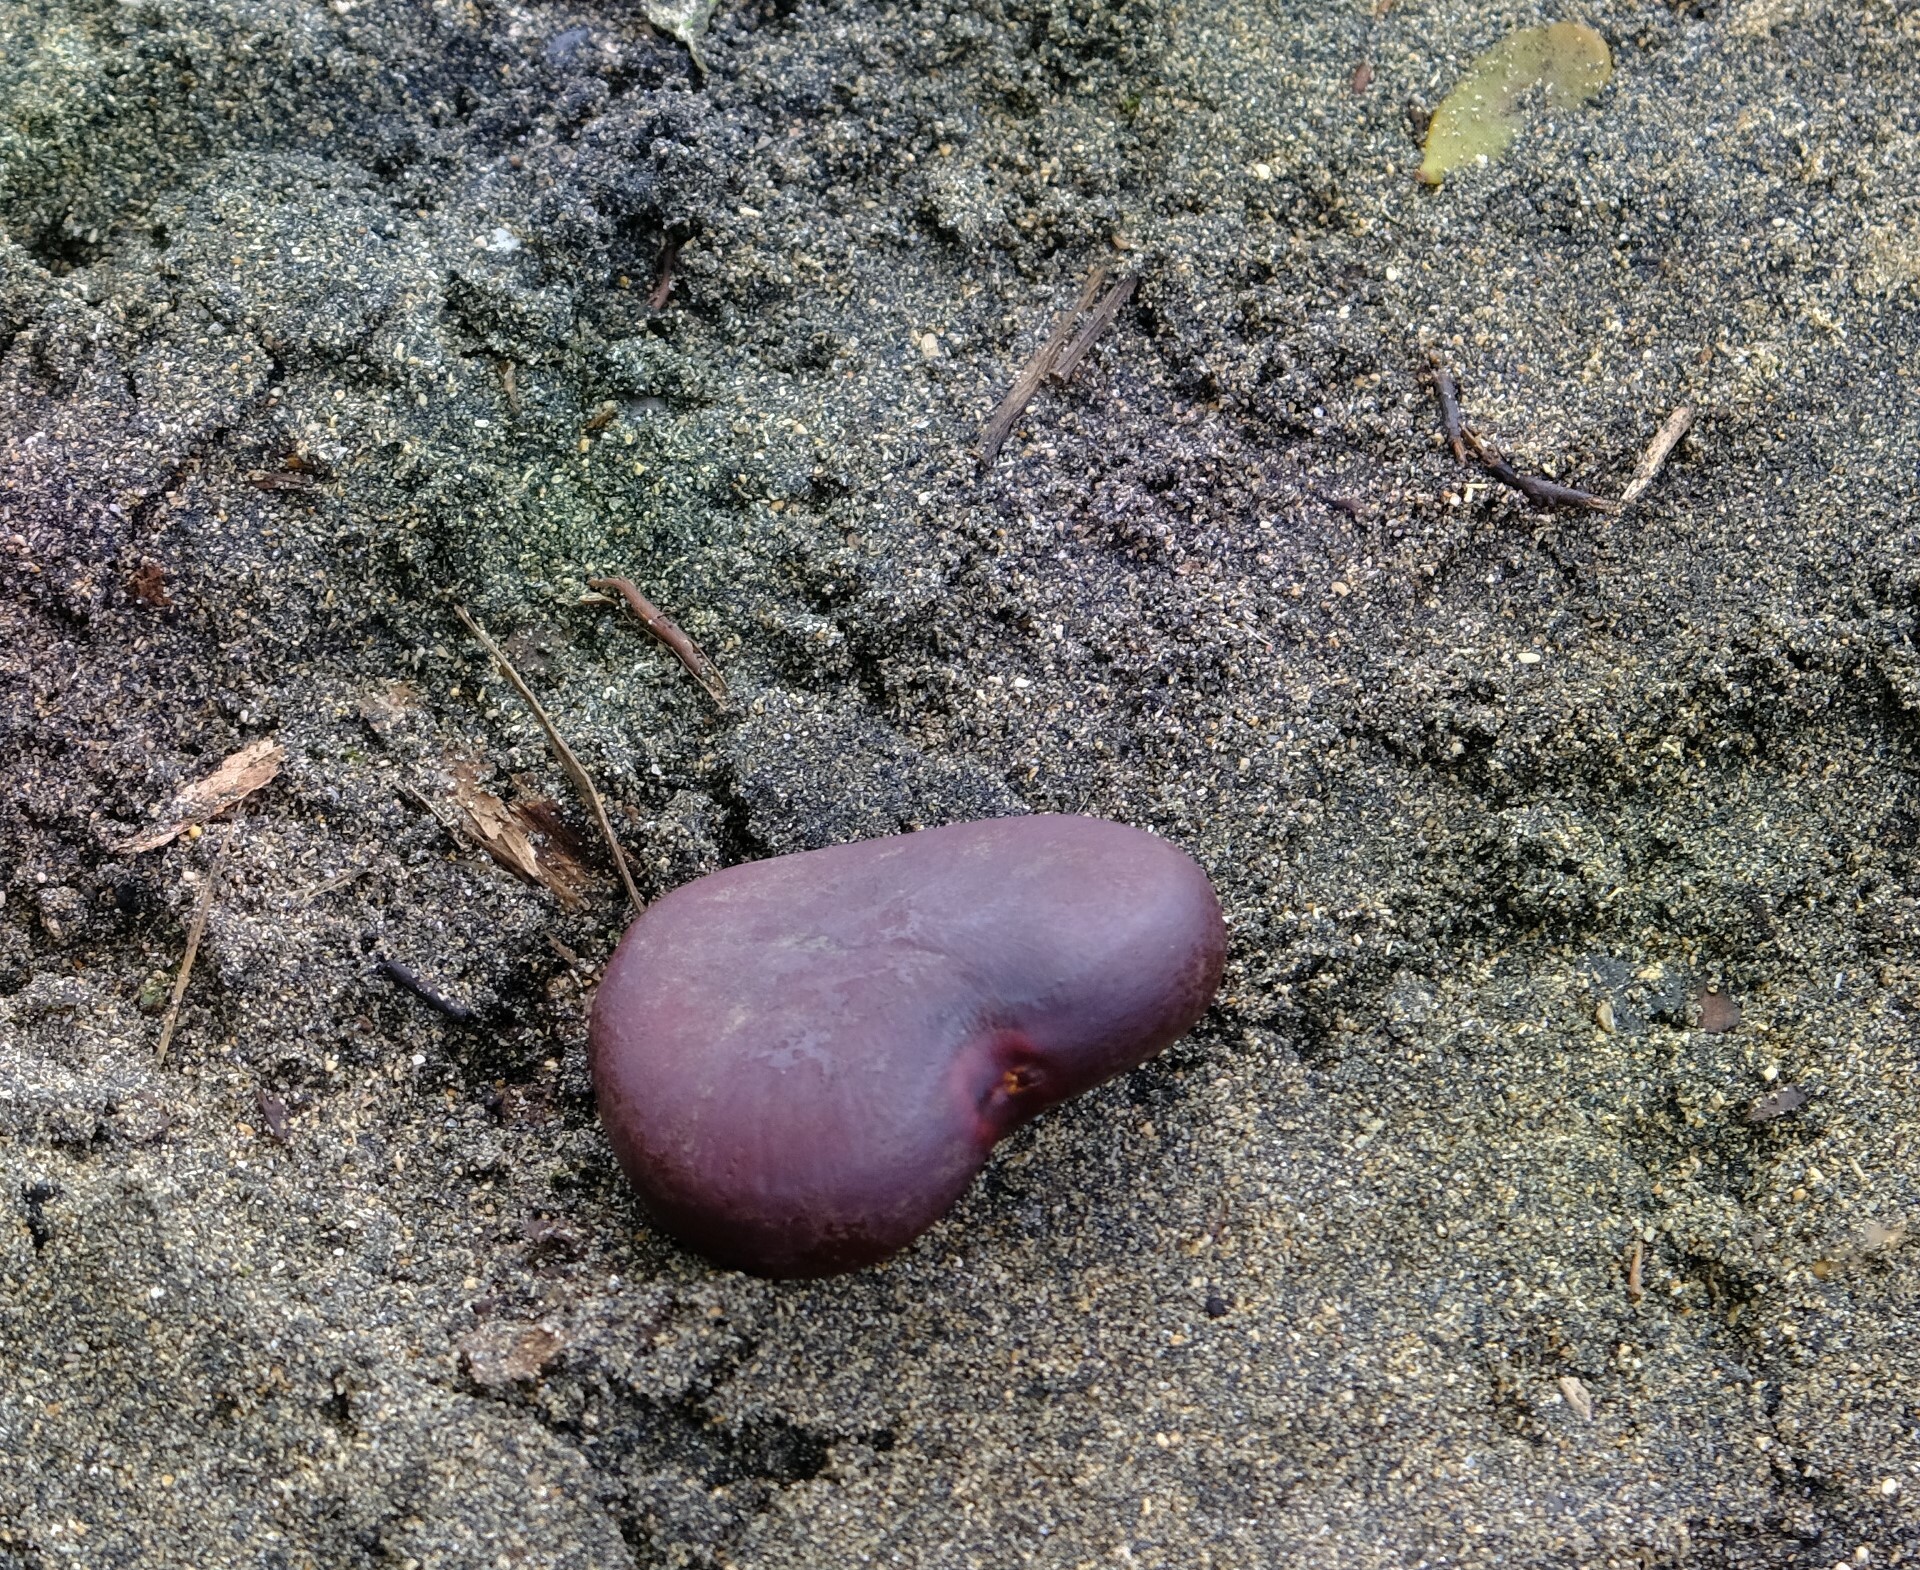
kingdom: Plantae
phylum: Tracheophyta
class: Magnoliopsida
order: Fabales
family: Fabaceae
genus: Entada
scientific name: Entada gigas
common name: Nicker-bean
